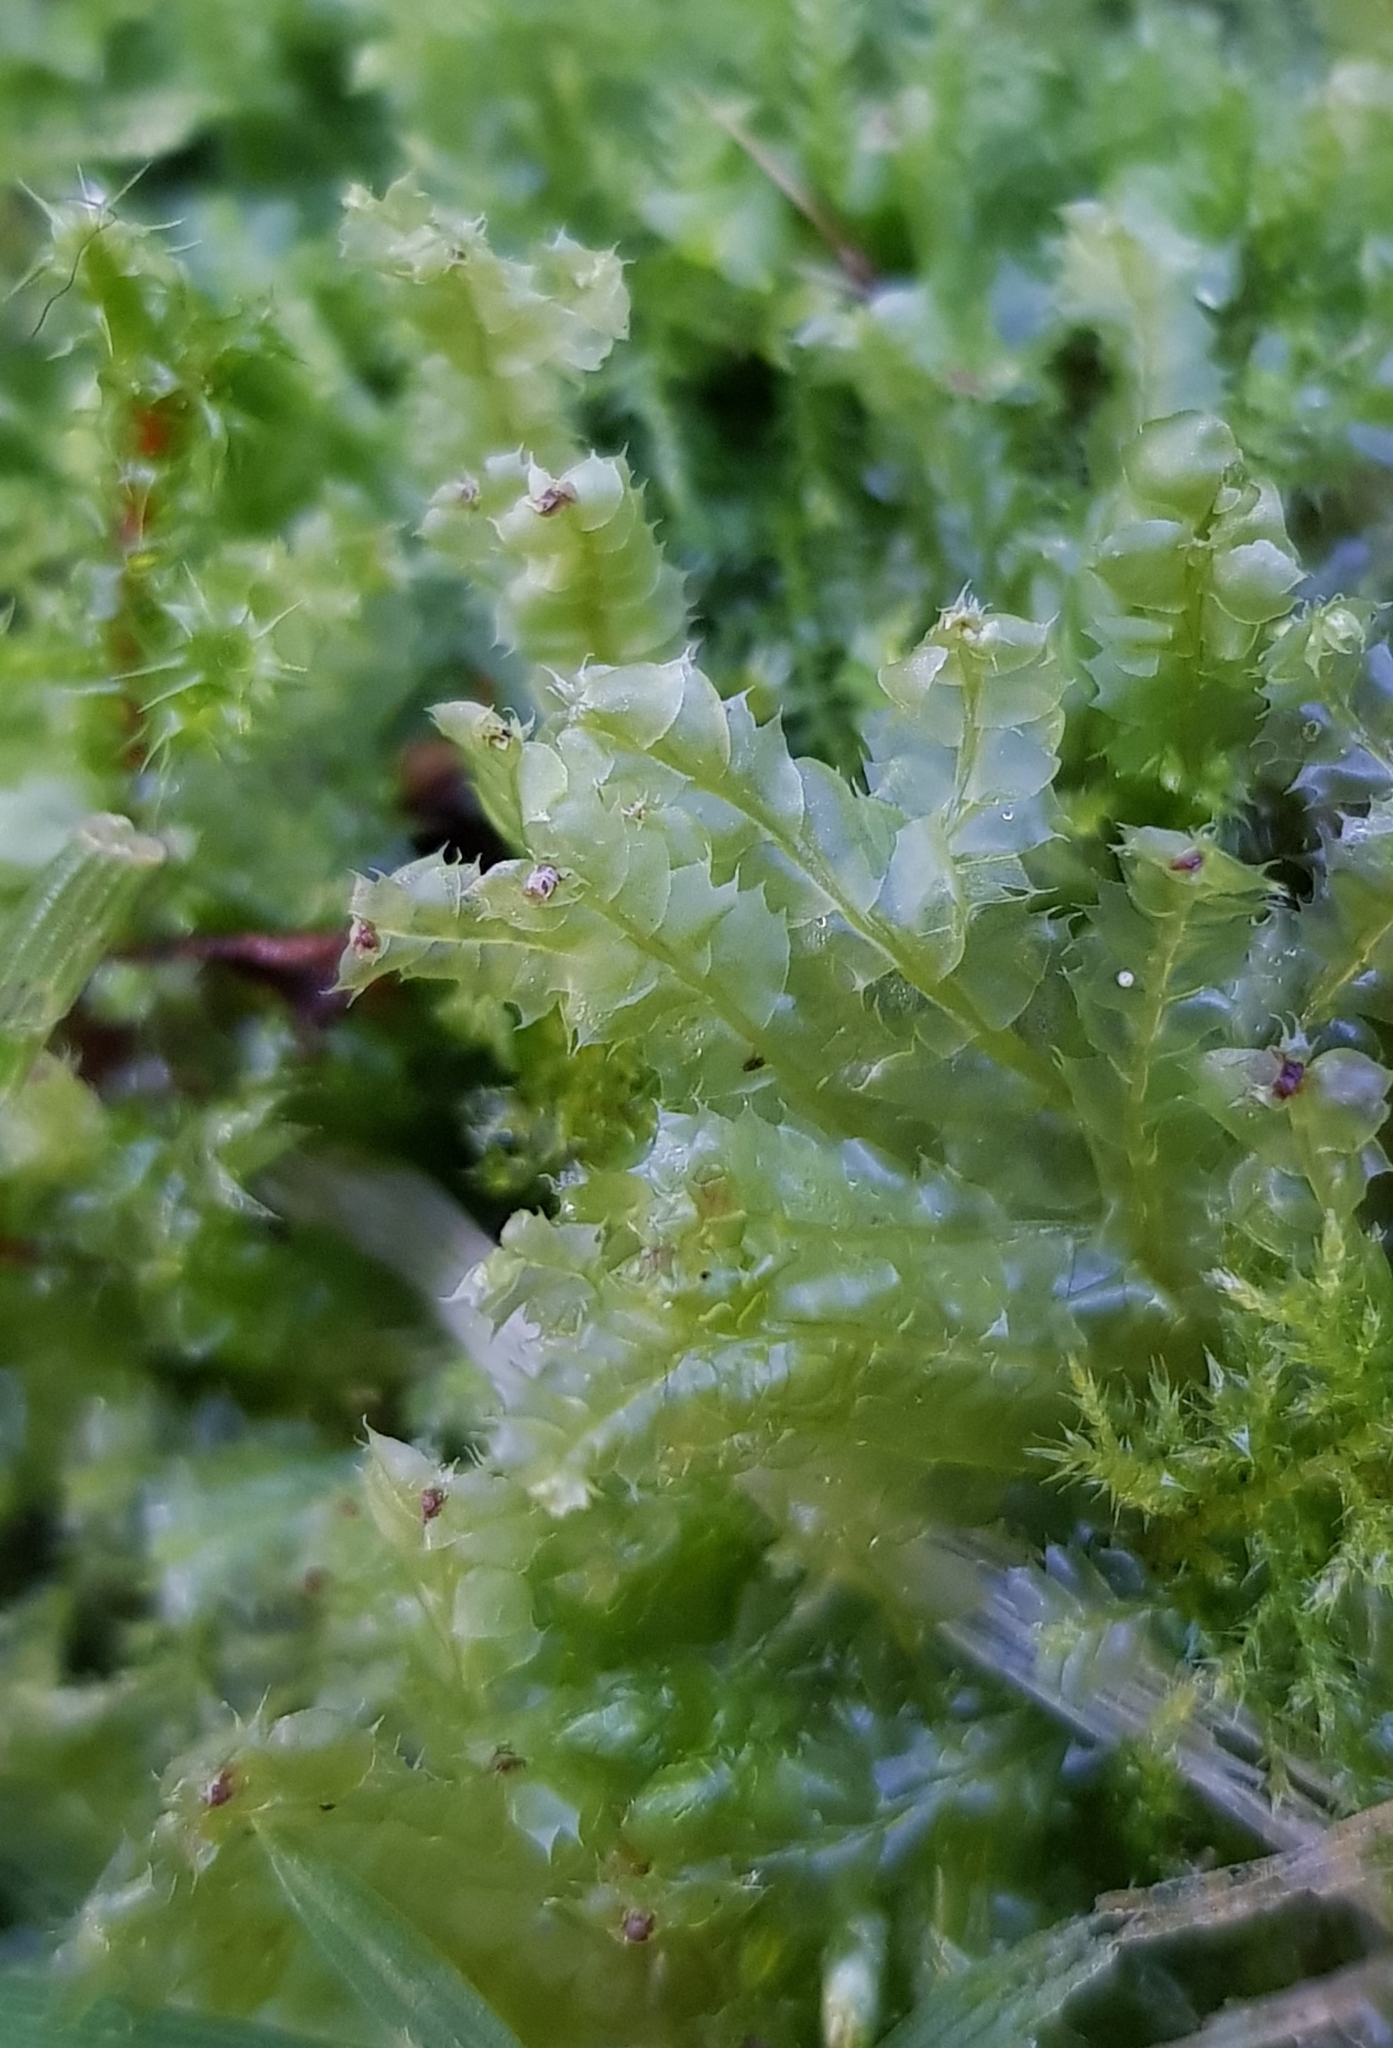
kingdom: Plantae
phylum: Marchantiophyta
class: Jungermanniopsida
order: Jungermanniales
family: Lophocoleaceae
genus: Lophocolea
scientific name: Lophocolea bidentata
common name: Bifid crestwort
